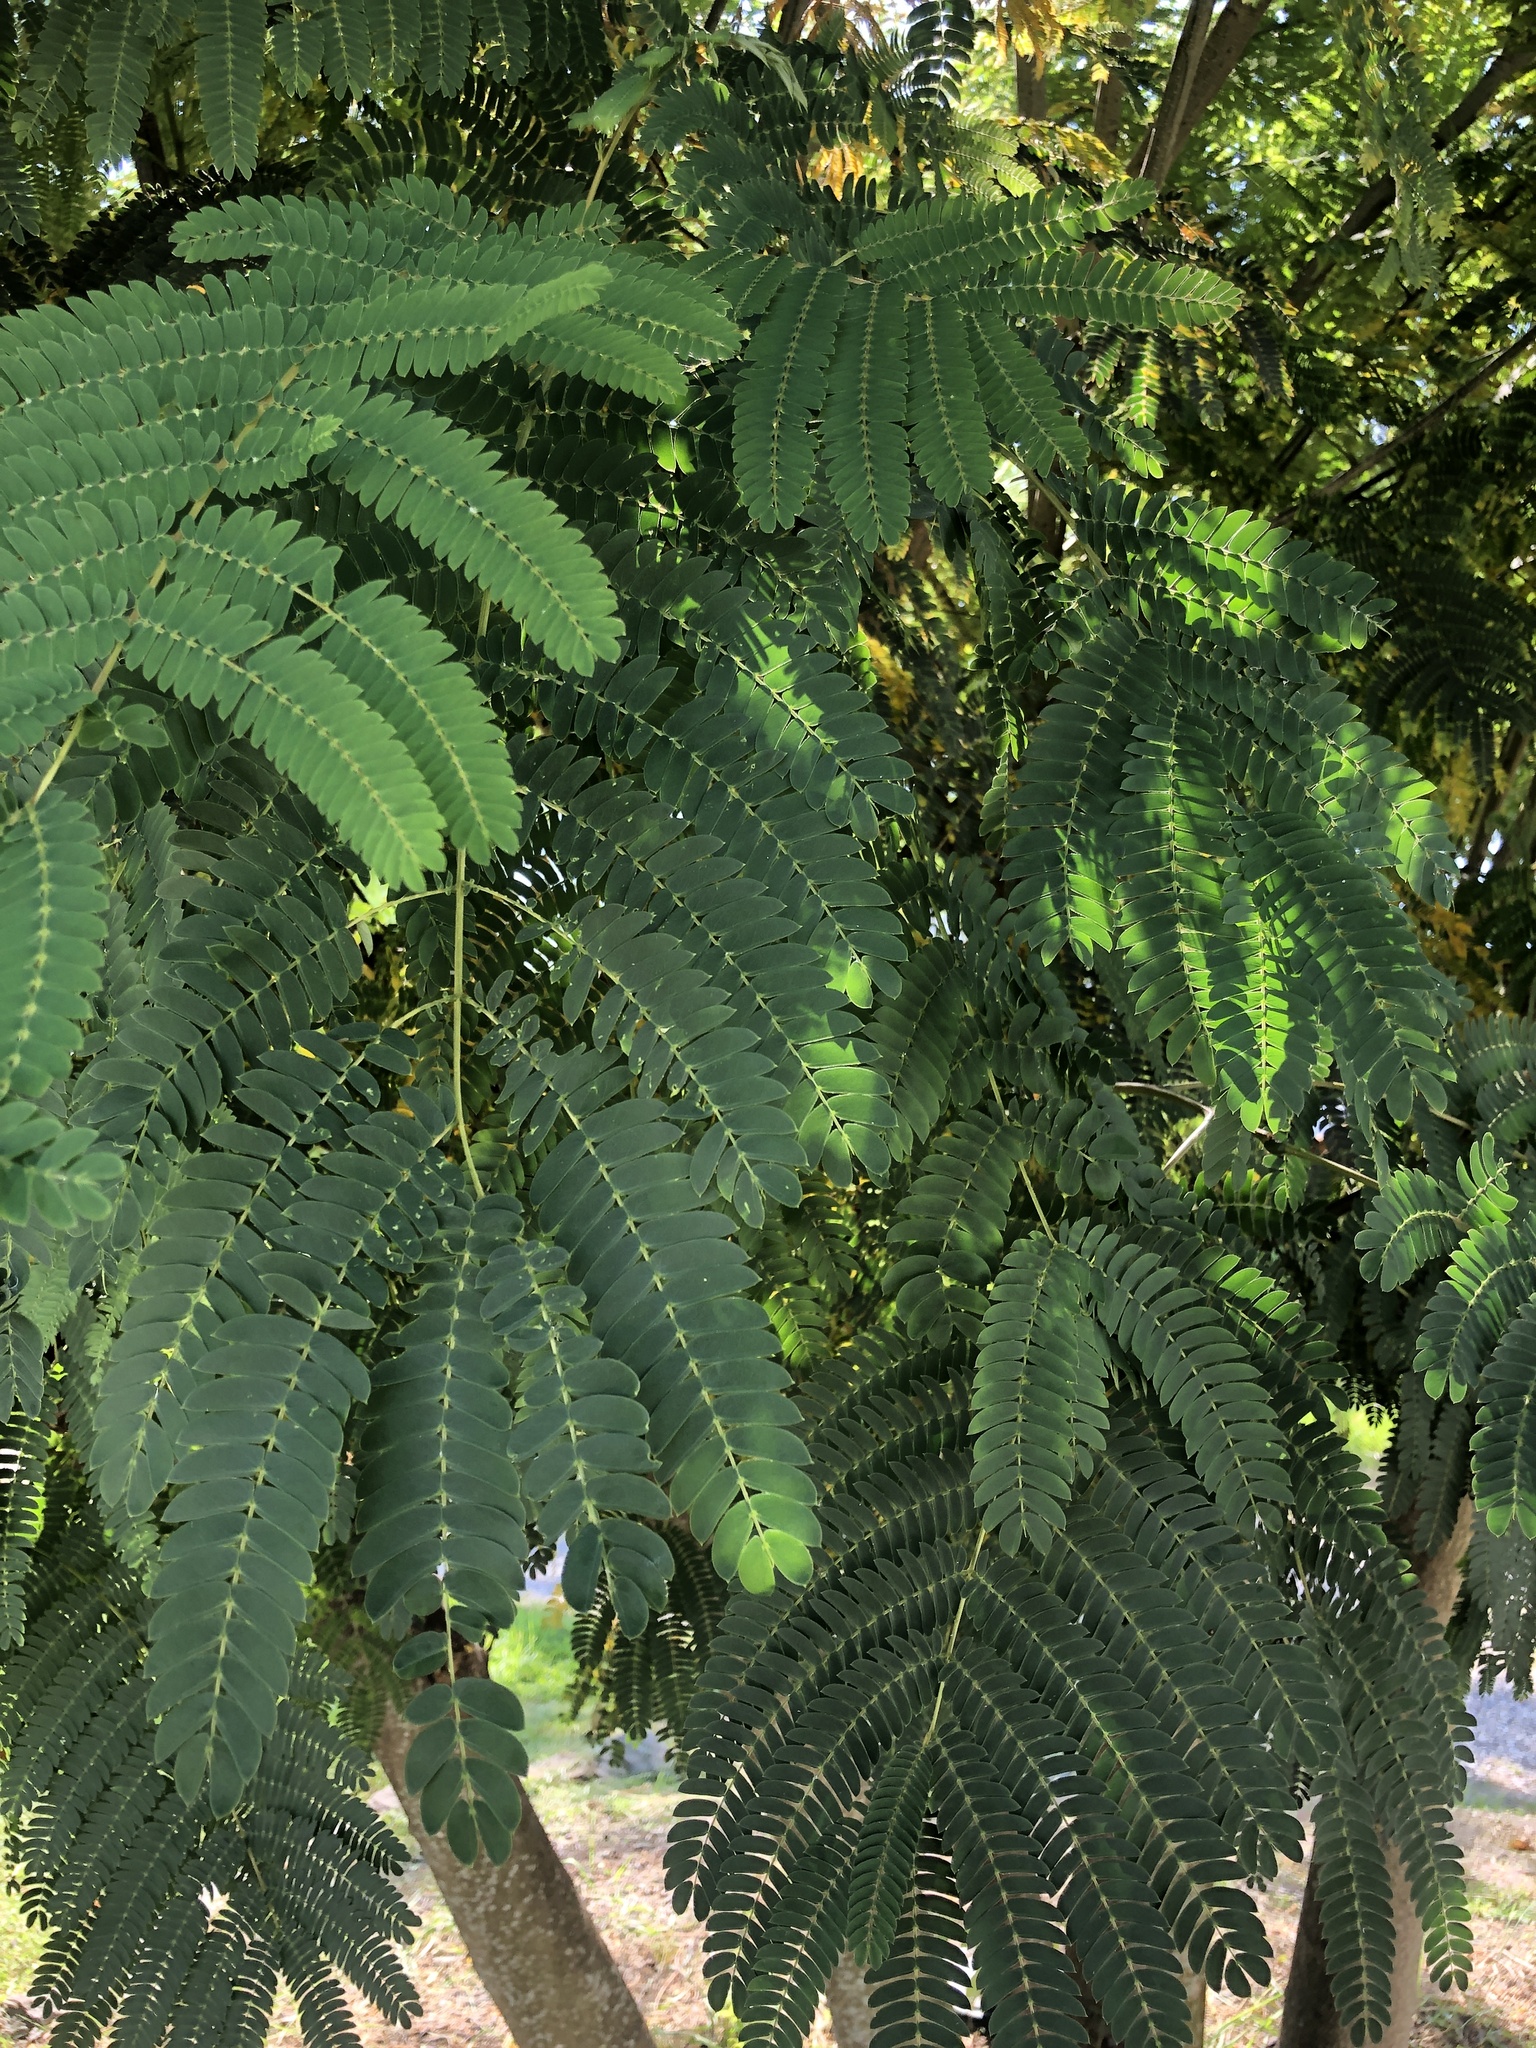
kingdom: Plantae
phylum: Tracheophyta
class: Magnoliopsida
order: Fabales
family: Fabaceae
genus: Albizia
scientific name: Albizia julibrissin
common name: Silktree
